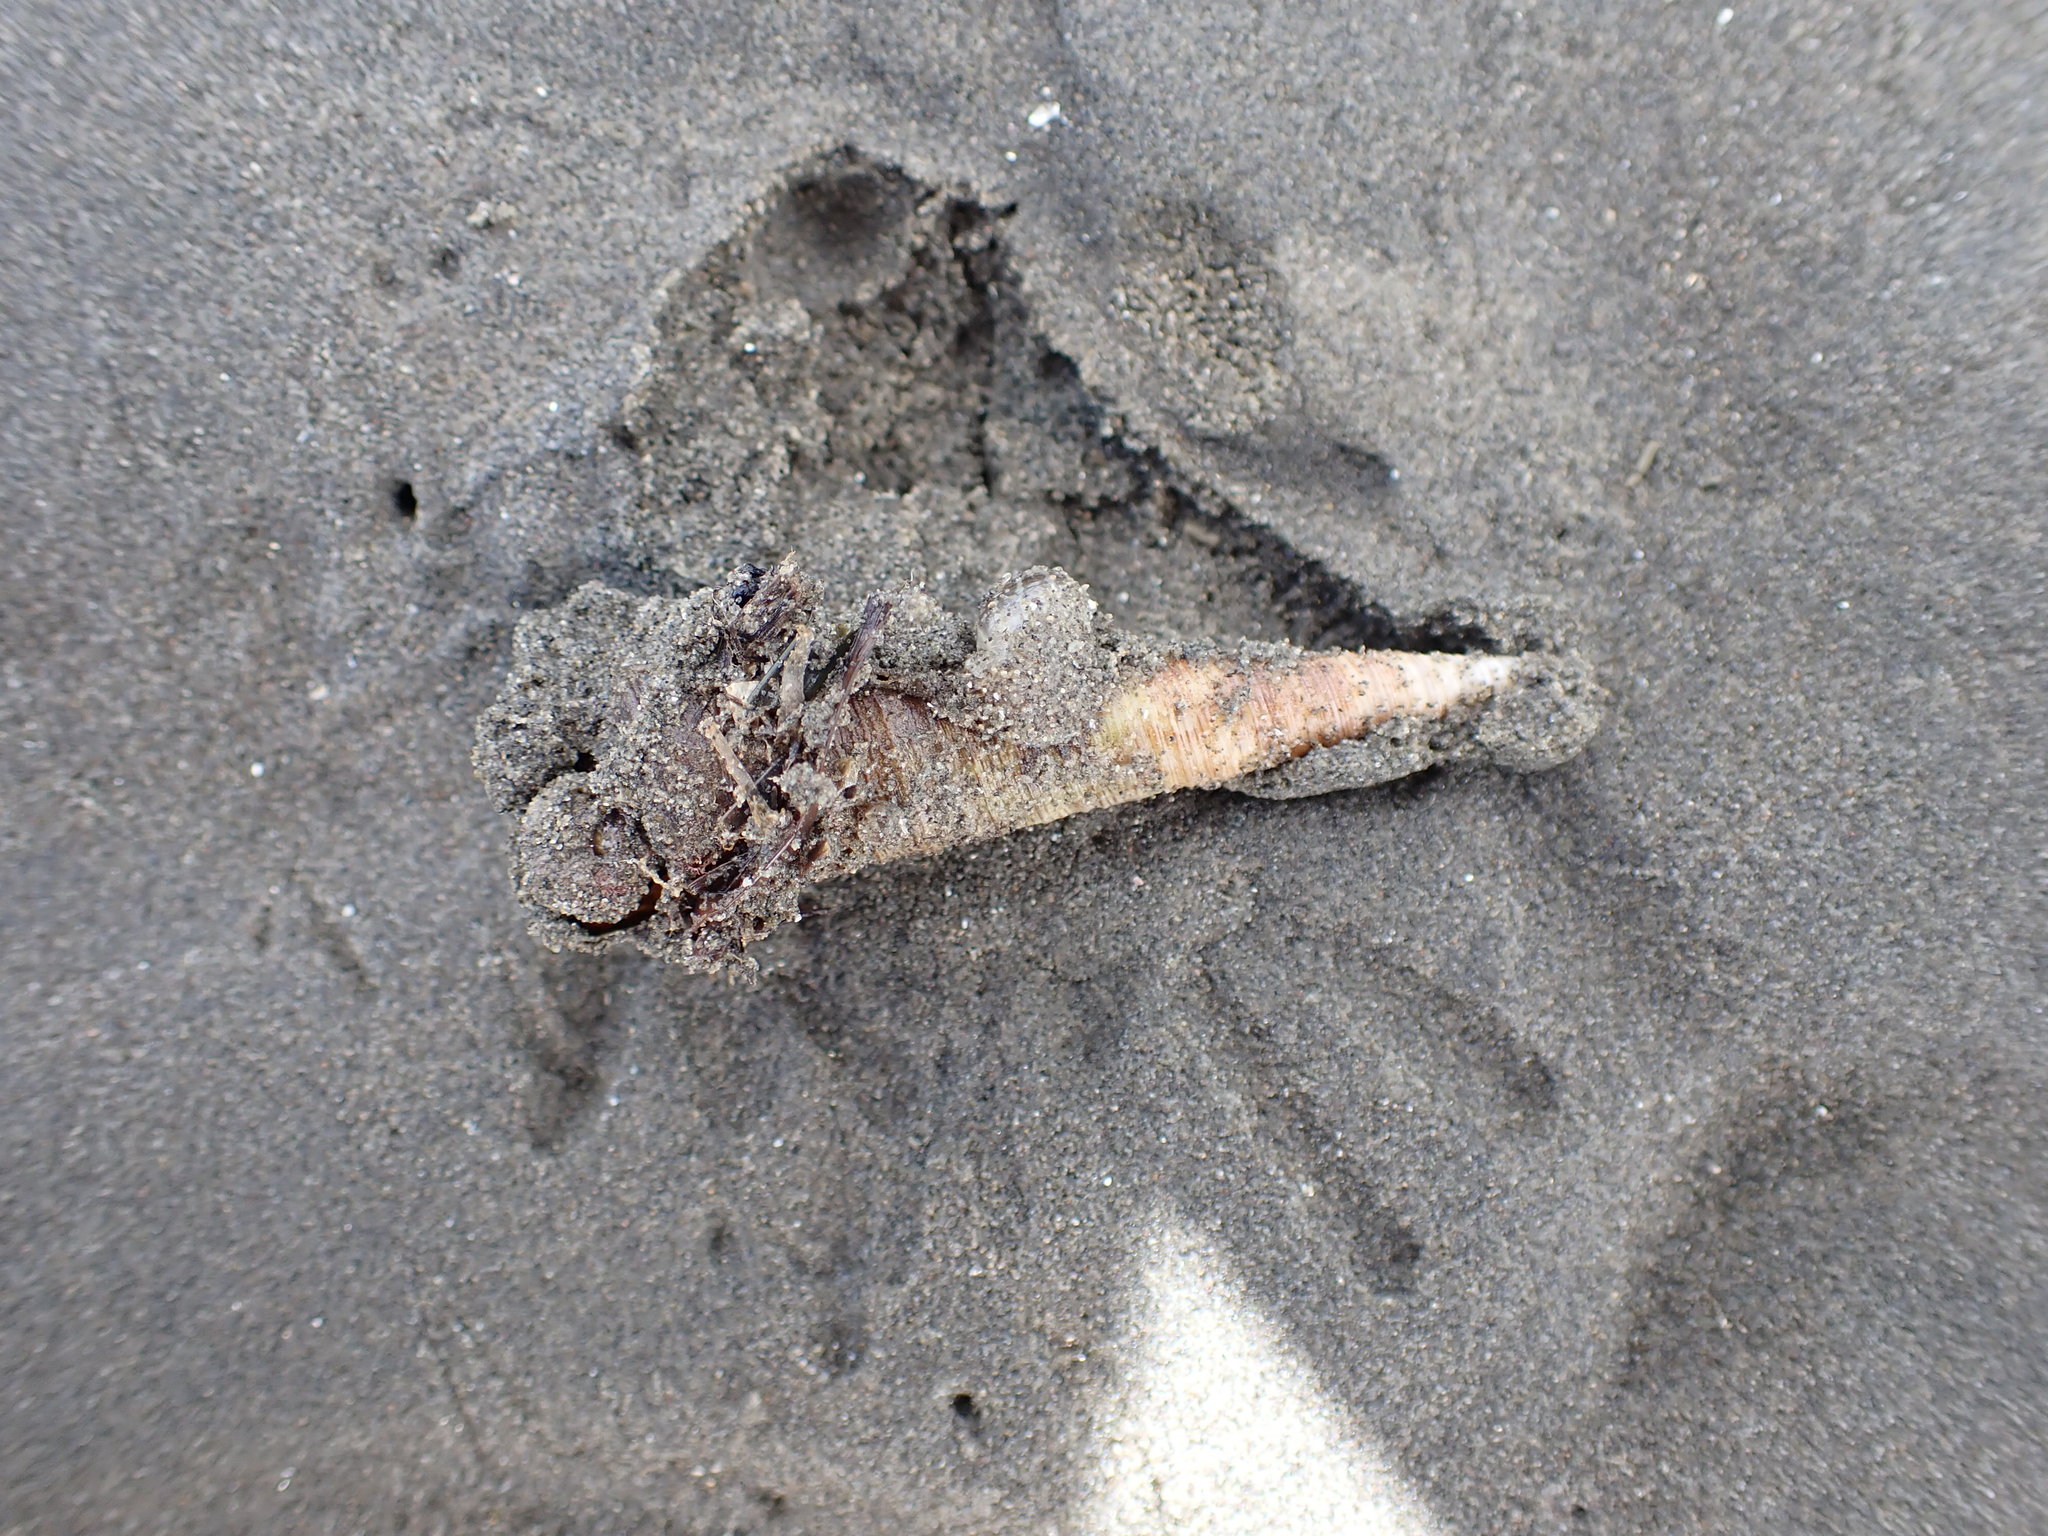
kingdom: Animalia
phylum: Mollusca
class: Gastropoda
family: Turritellidae
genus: Maoricolpus
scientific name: Maoricolpus roseus
